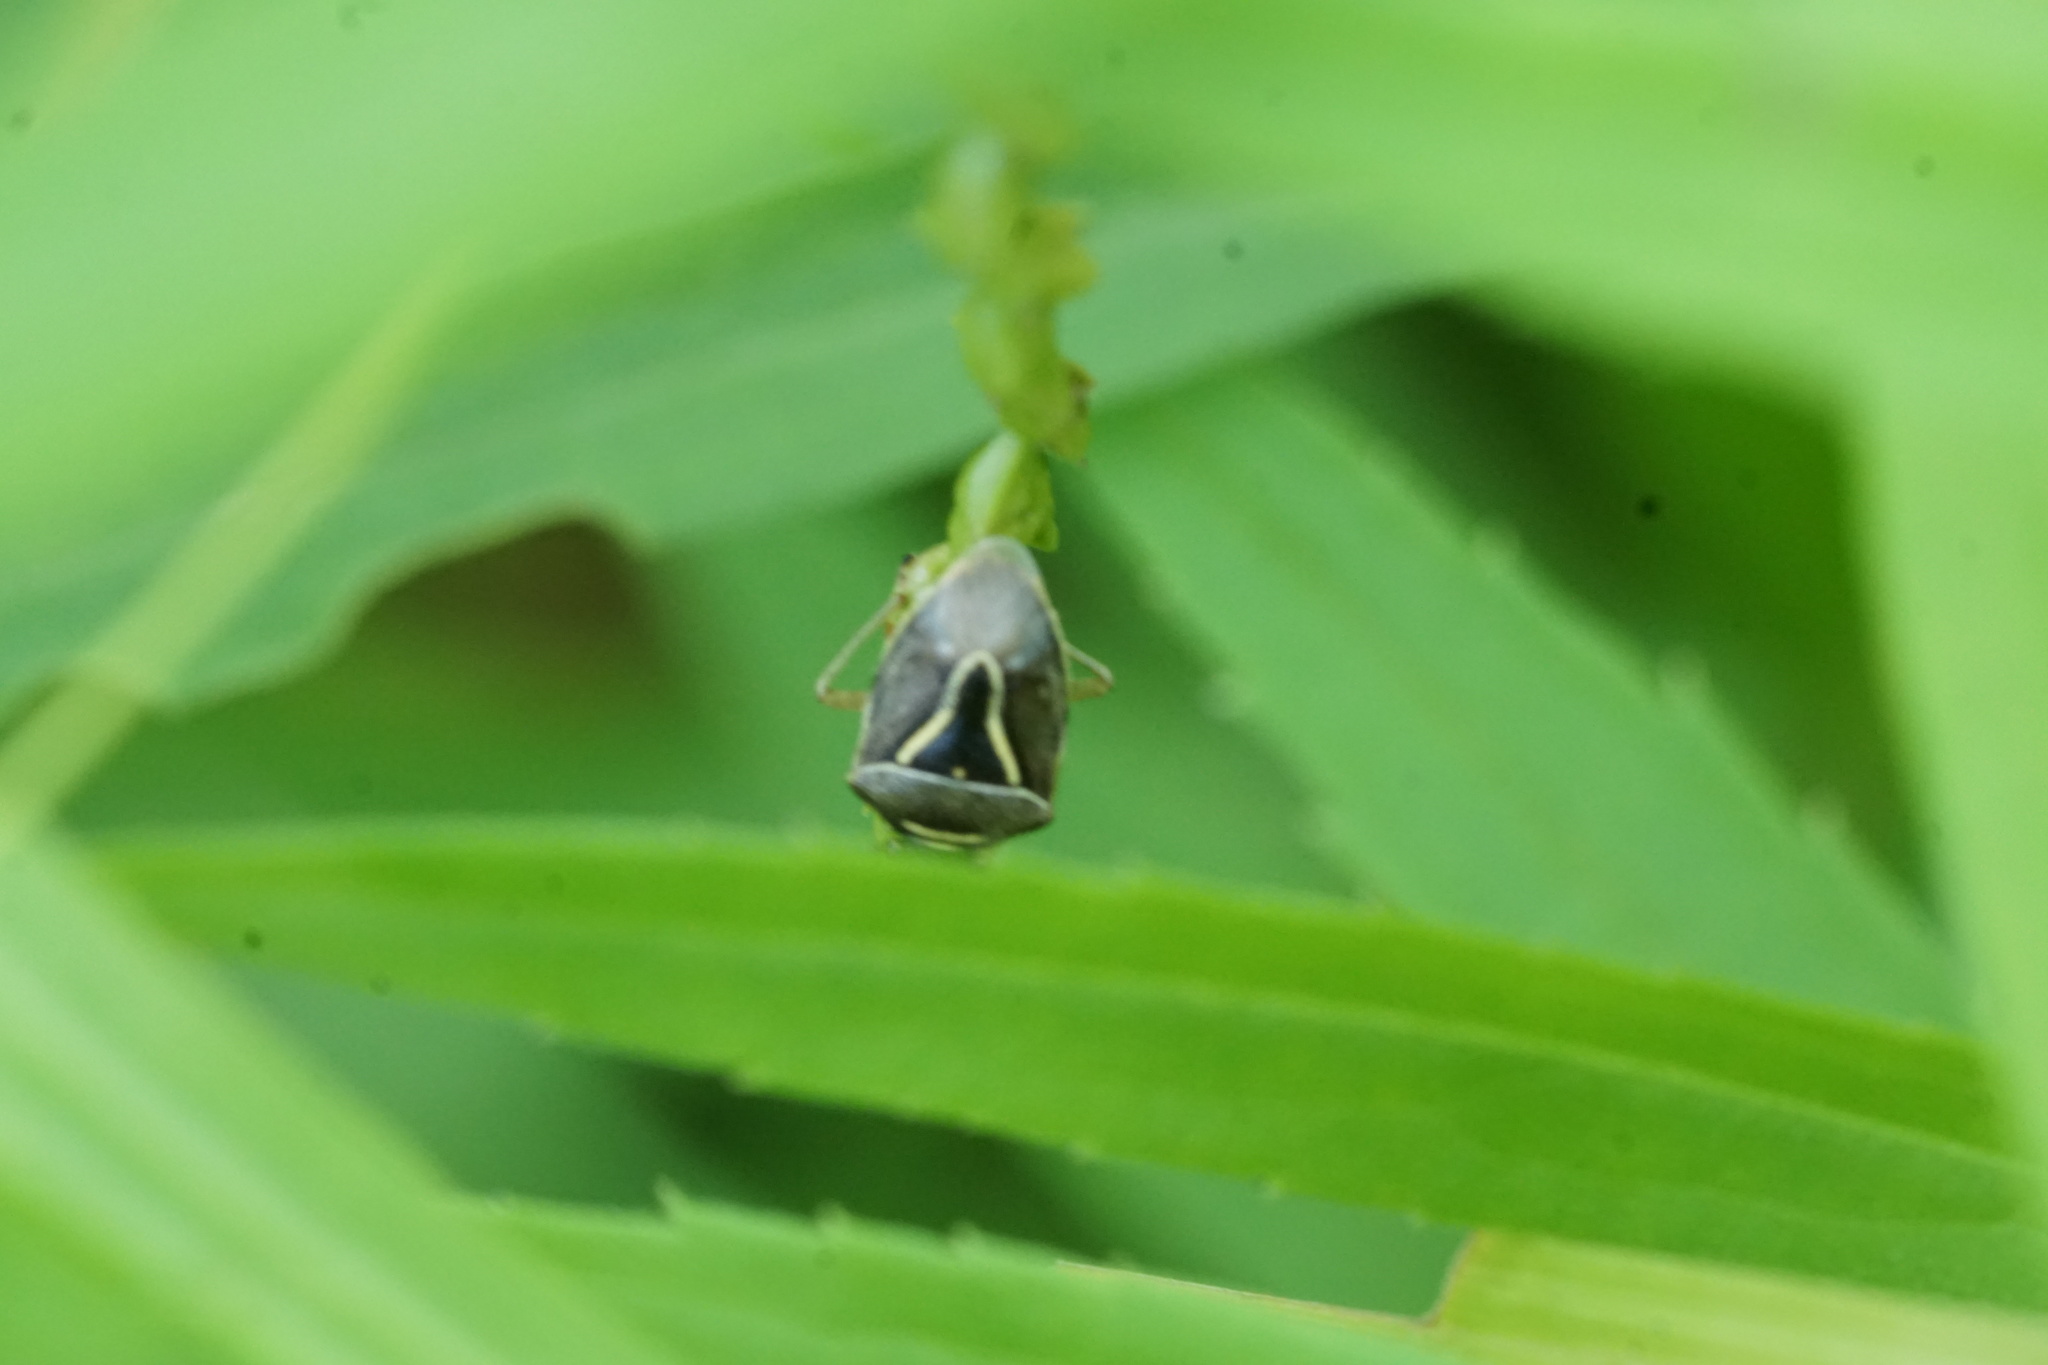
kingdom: Animalia
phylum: Arthropoda
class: Insecta
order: Hemiptera
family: Pentatomidae
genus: Mormidea
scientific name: Mormidea lugens
